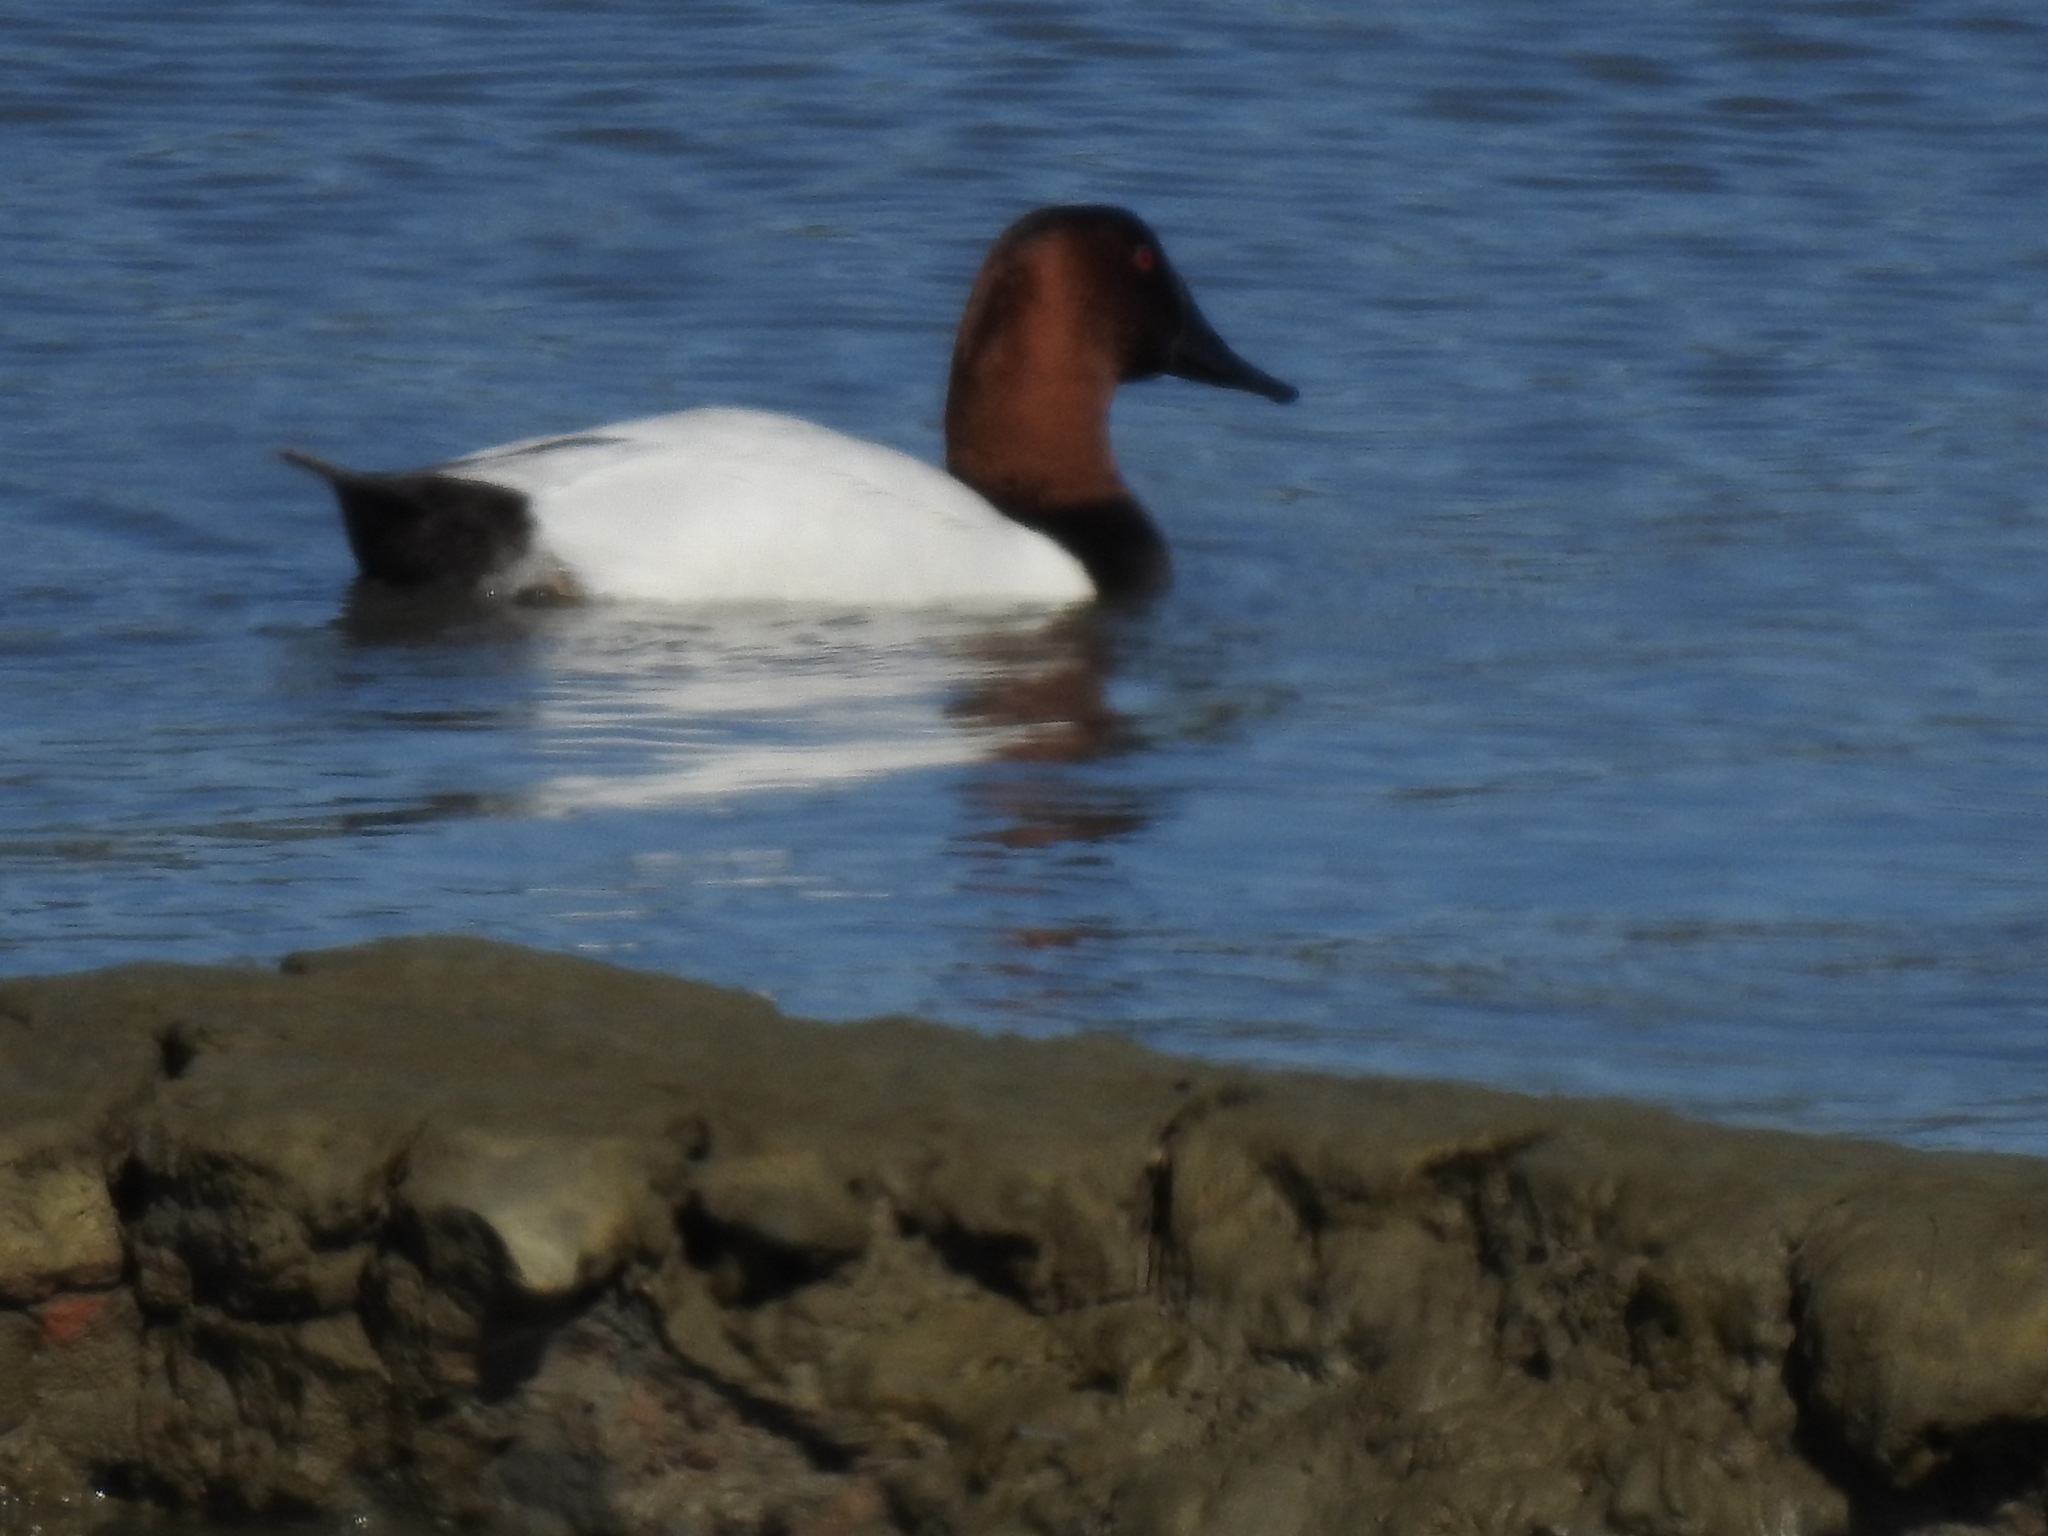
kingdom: Animalia
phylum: Chordata
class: Aves
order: Anseriformes
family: Anatidae
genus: Aythya
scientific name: Aythya valisineria
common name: Canvasback
